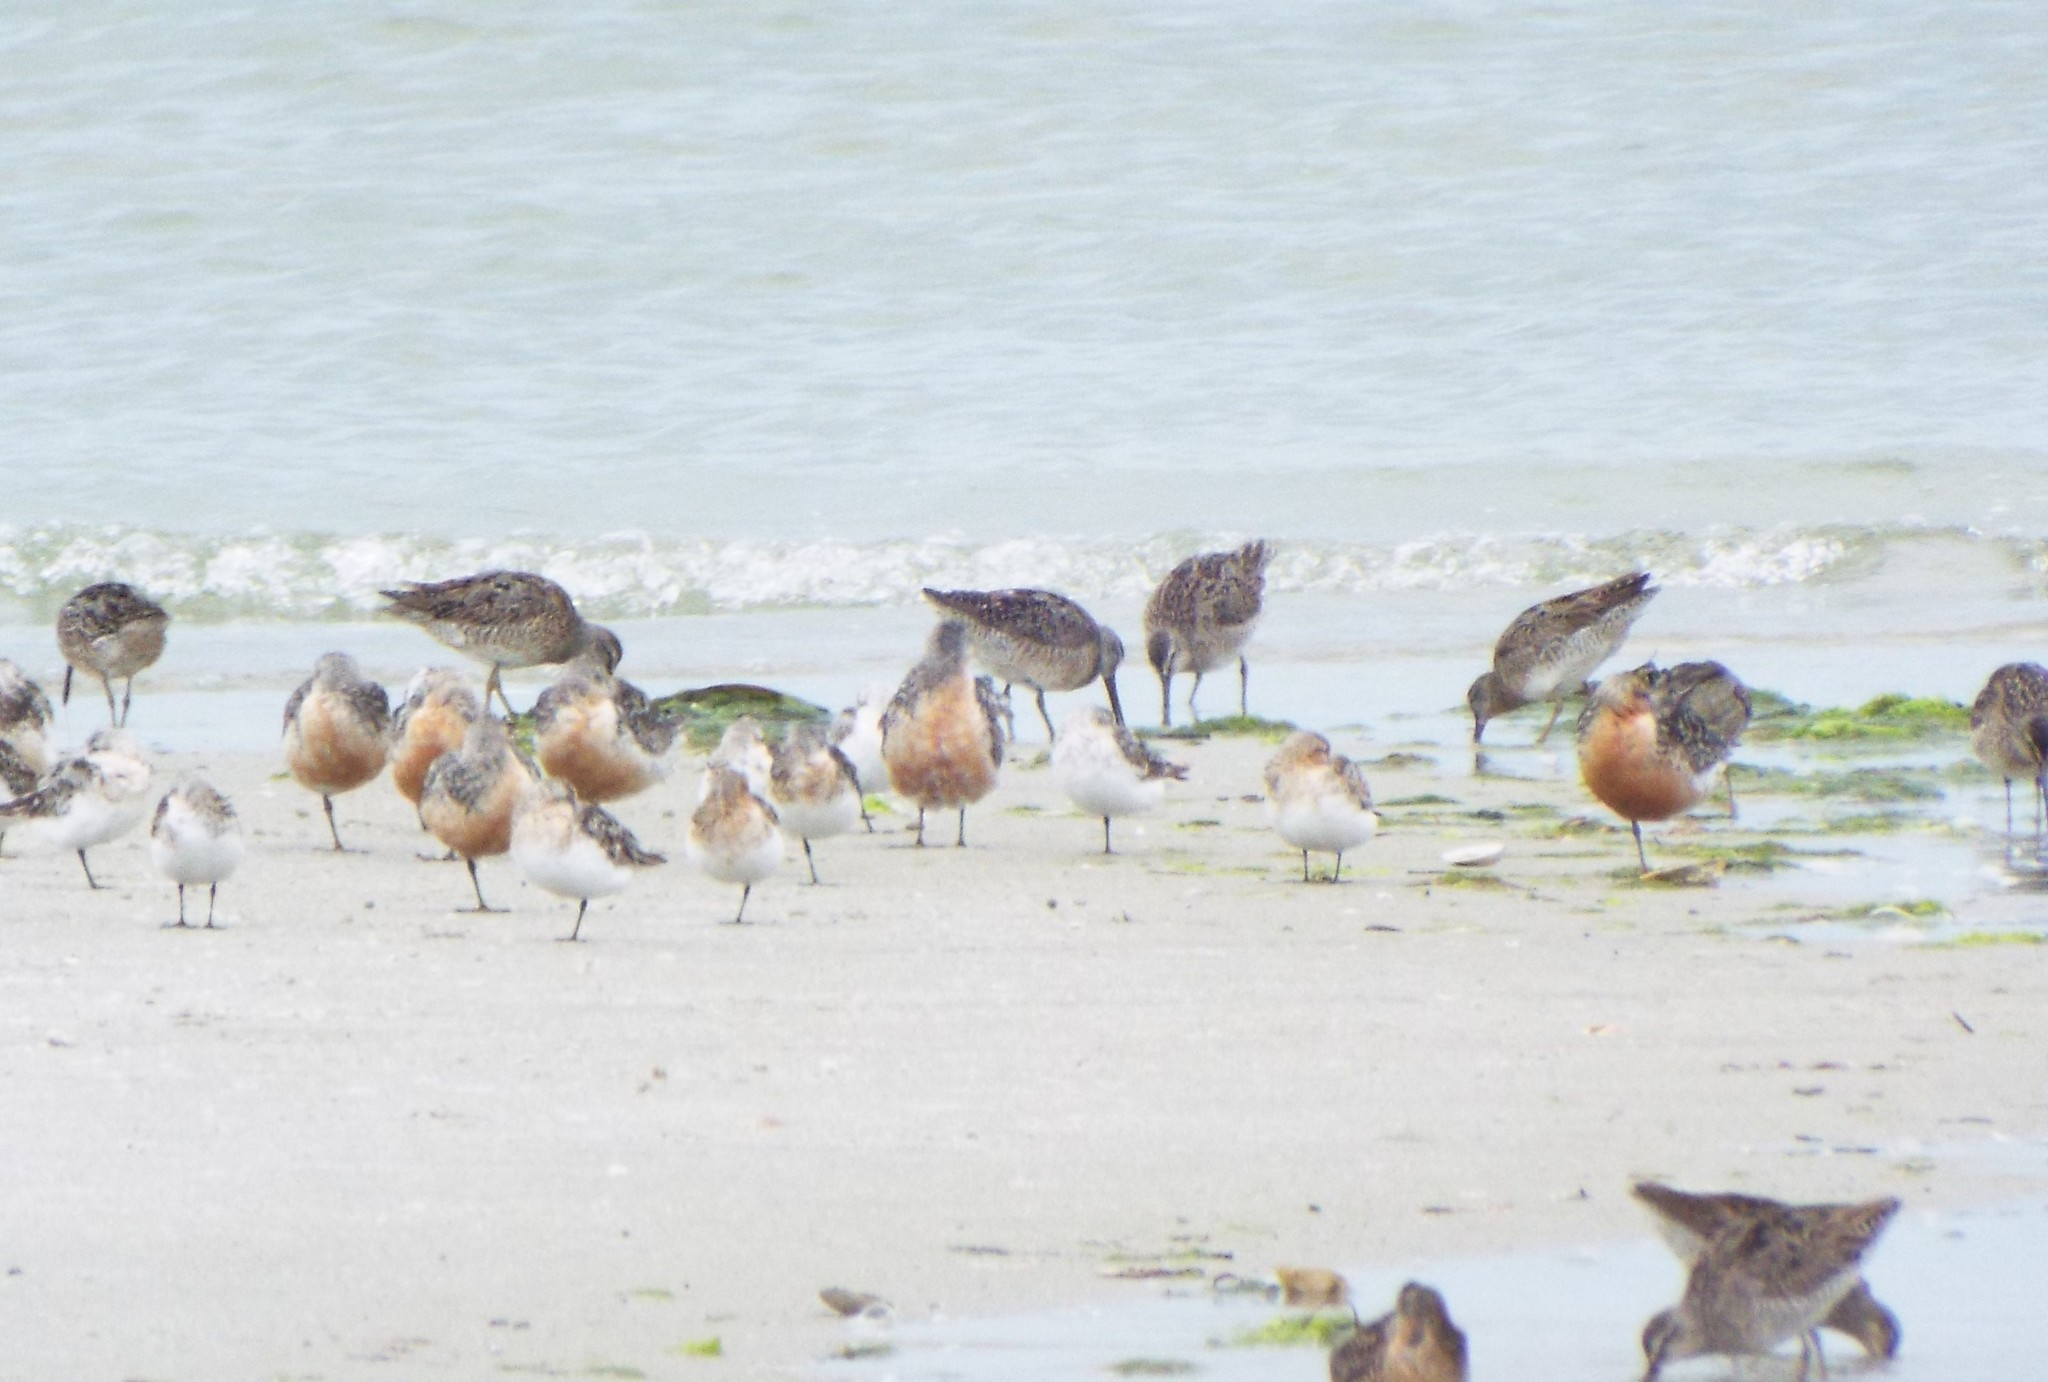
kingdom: Animalia
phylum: Chordata
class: Aves
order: Charadriiformes
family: Scolopacidae
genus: Calidris
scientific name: Calidris canutus
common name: Red knot
